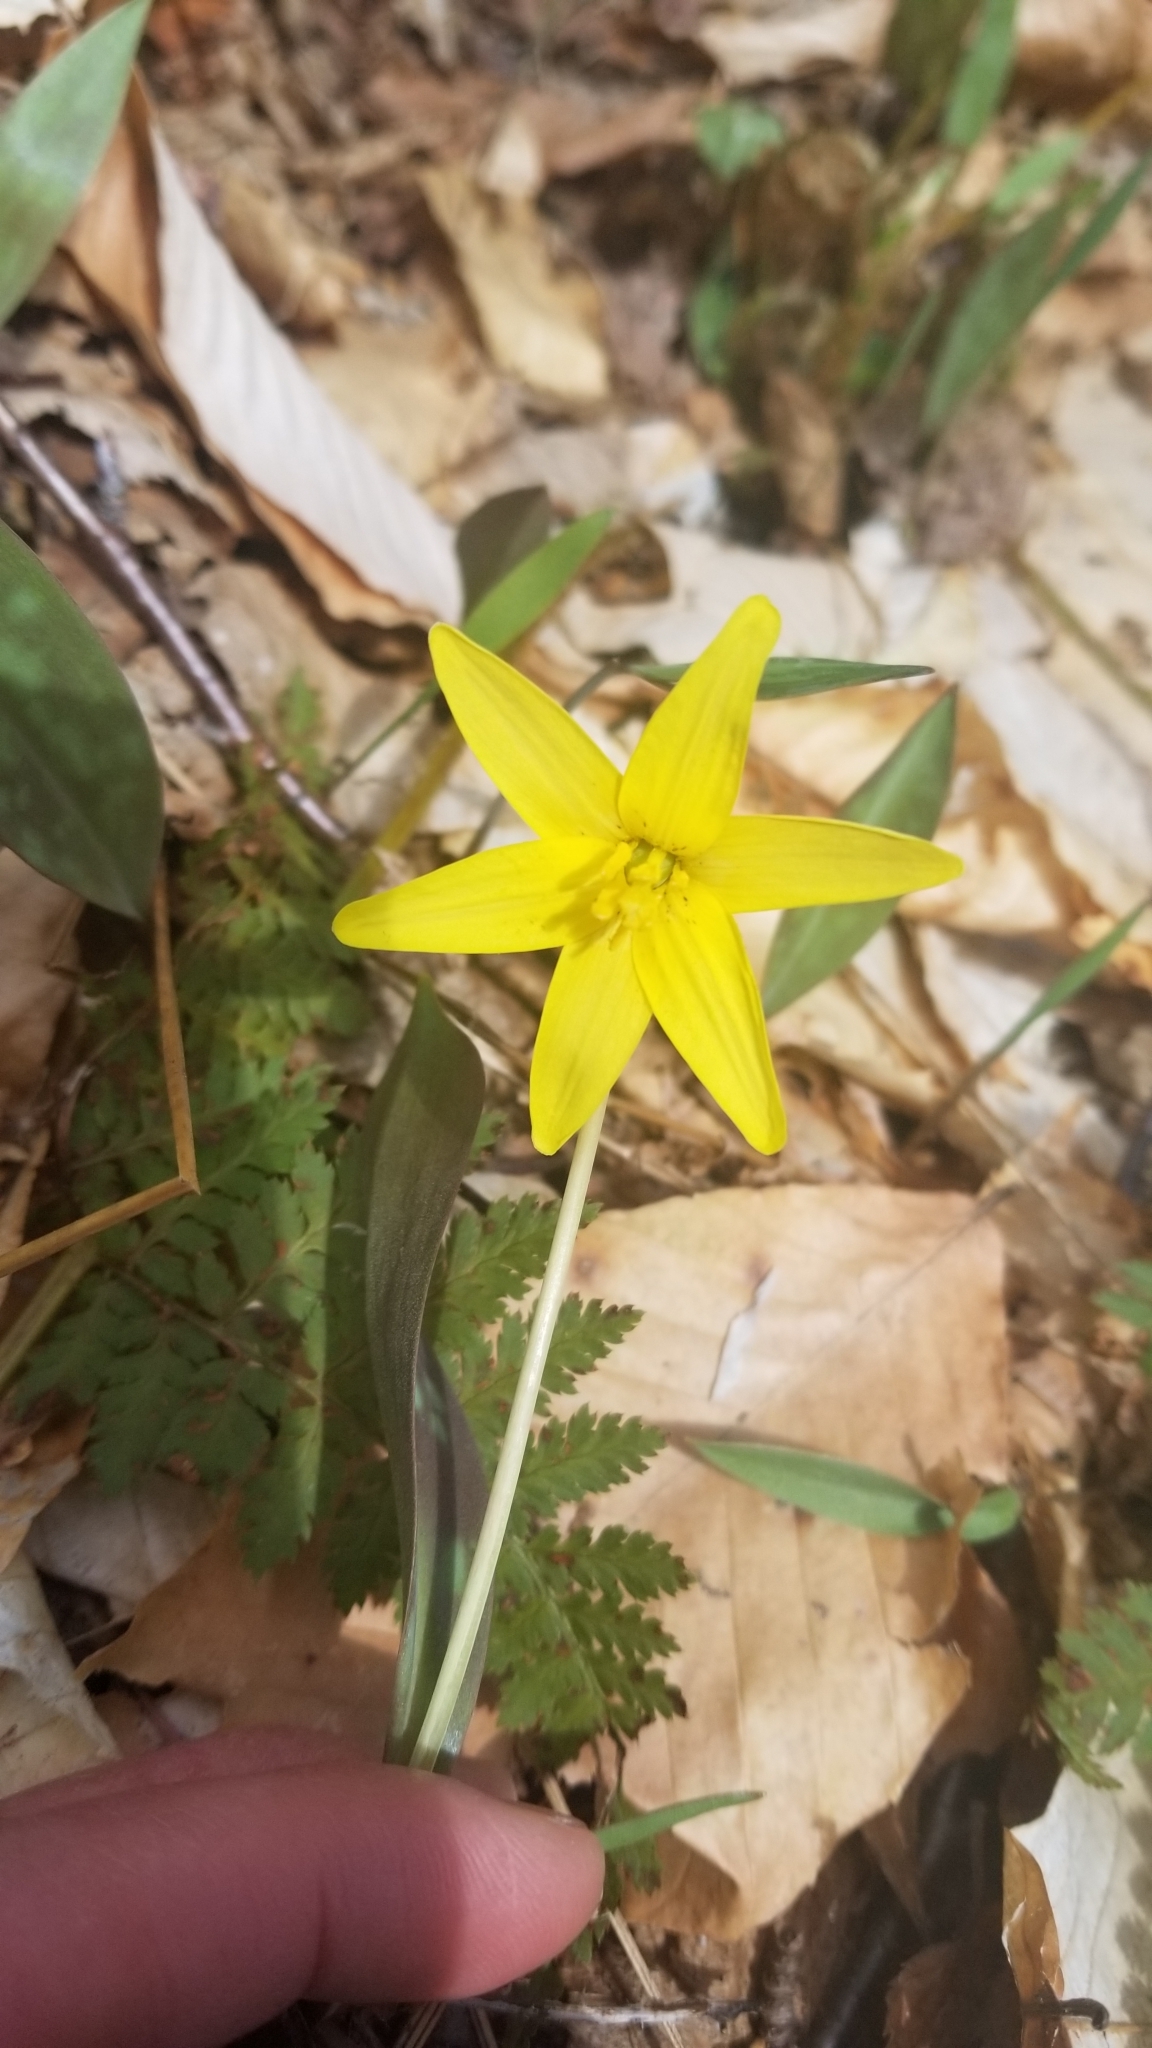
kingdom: Plantae
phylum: Tracheophyta
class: Liliopsida
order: Liliales
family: Liliaceae
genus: Erythronium
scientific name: Erythronium americanum
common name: Yellow adder's-tongue
